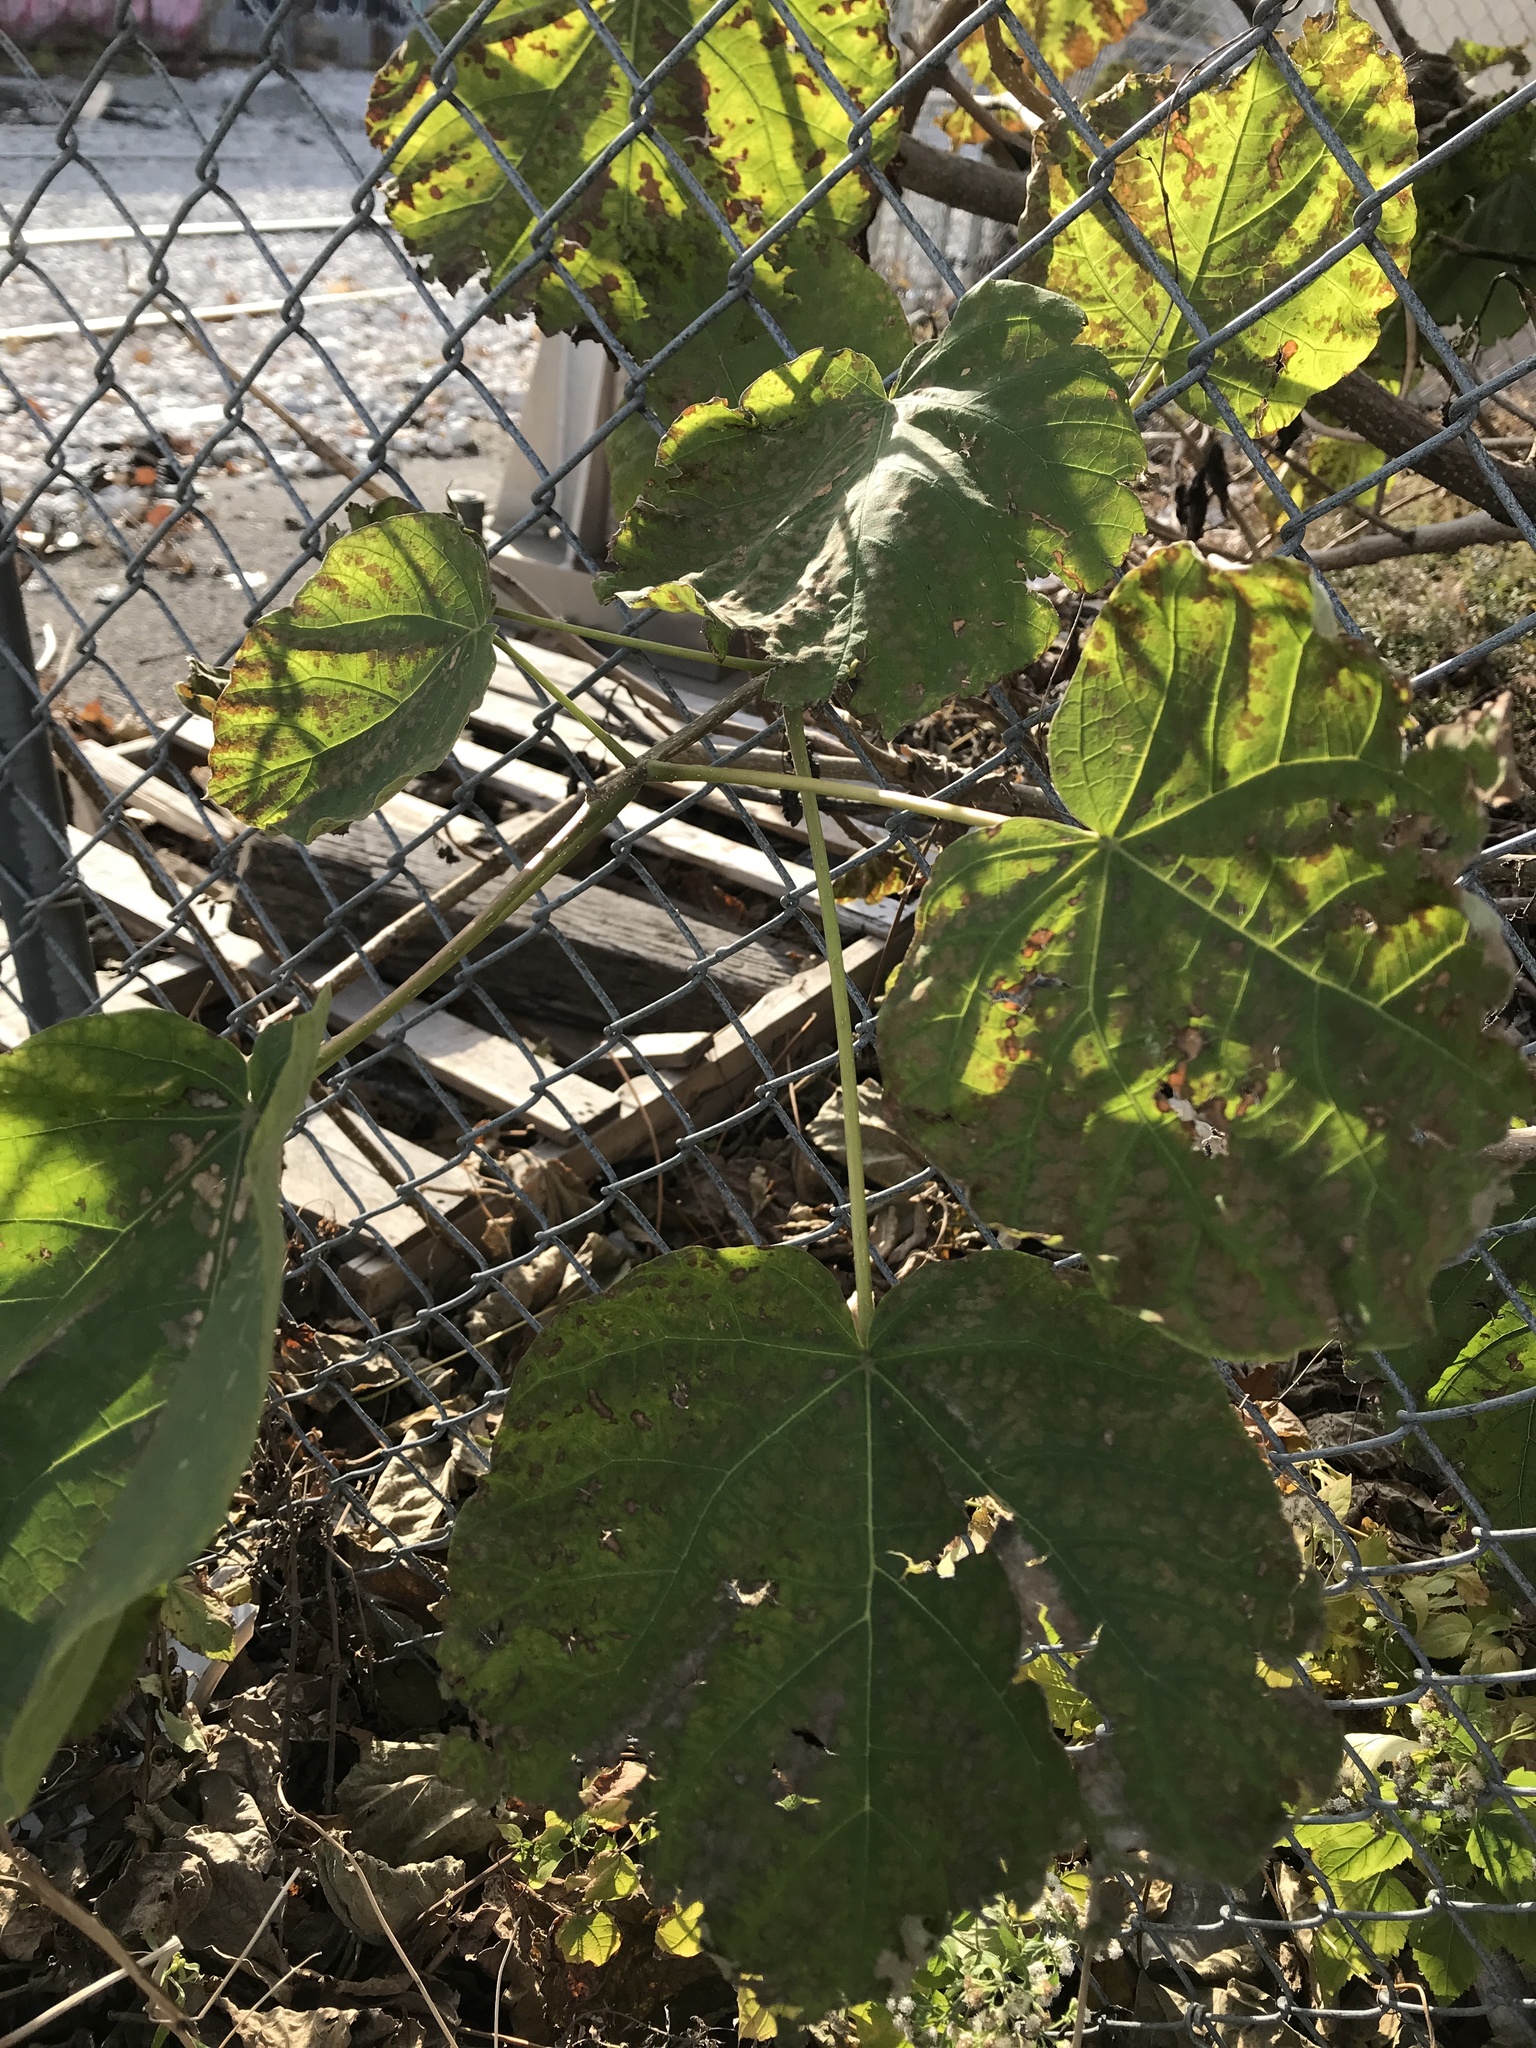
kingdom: Plantae
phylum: Tracheophyta
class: Magnoliopsida
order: Malvales
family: Malvaceae
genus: Tilia
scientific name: Tilia americana
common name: Basswood
